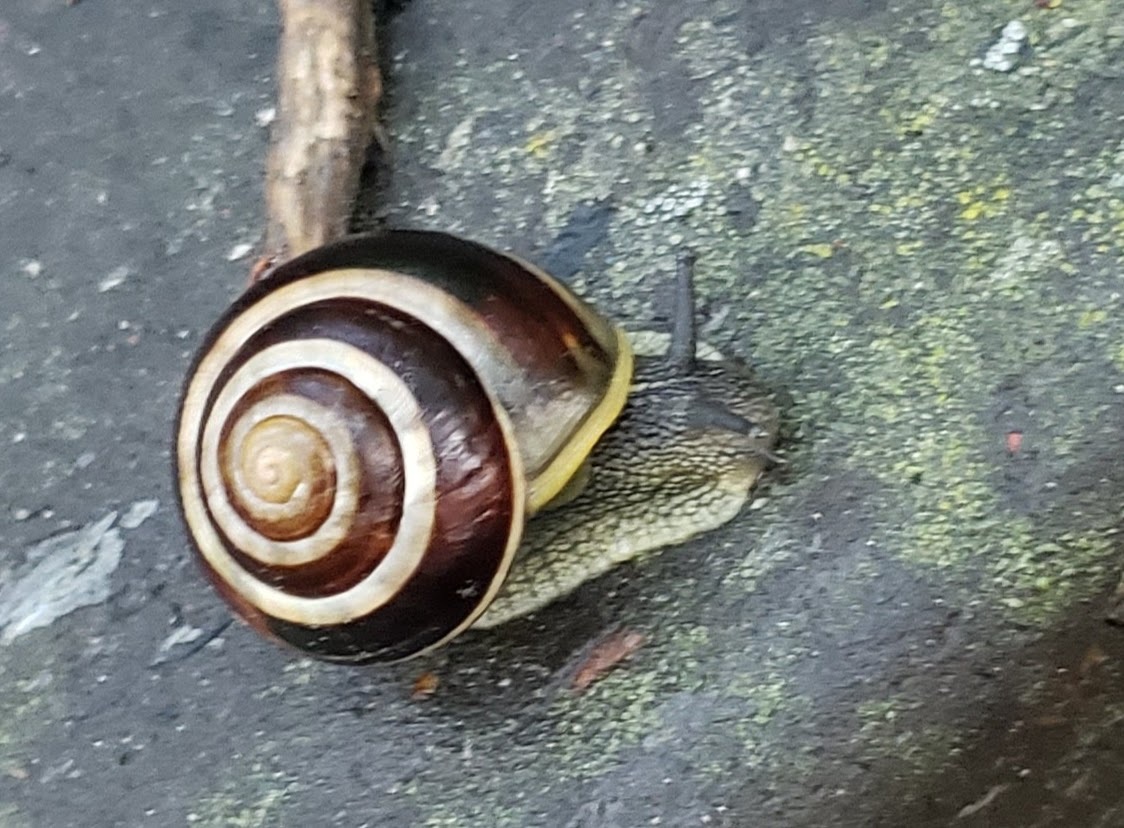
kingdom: Animalia
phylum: Mollusca
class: Gastropoda
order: Stylommatophora
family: Helicidae
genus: Cepaea
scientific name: Cepaea nemoralis
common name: Grovesnail
